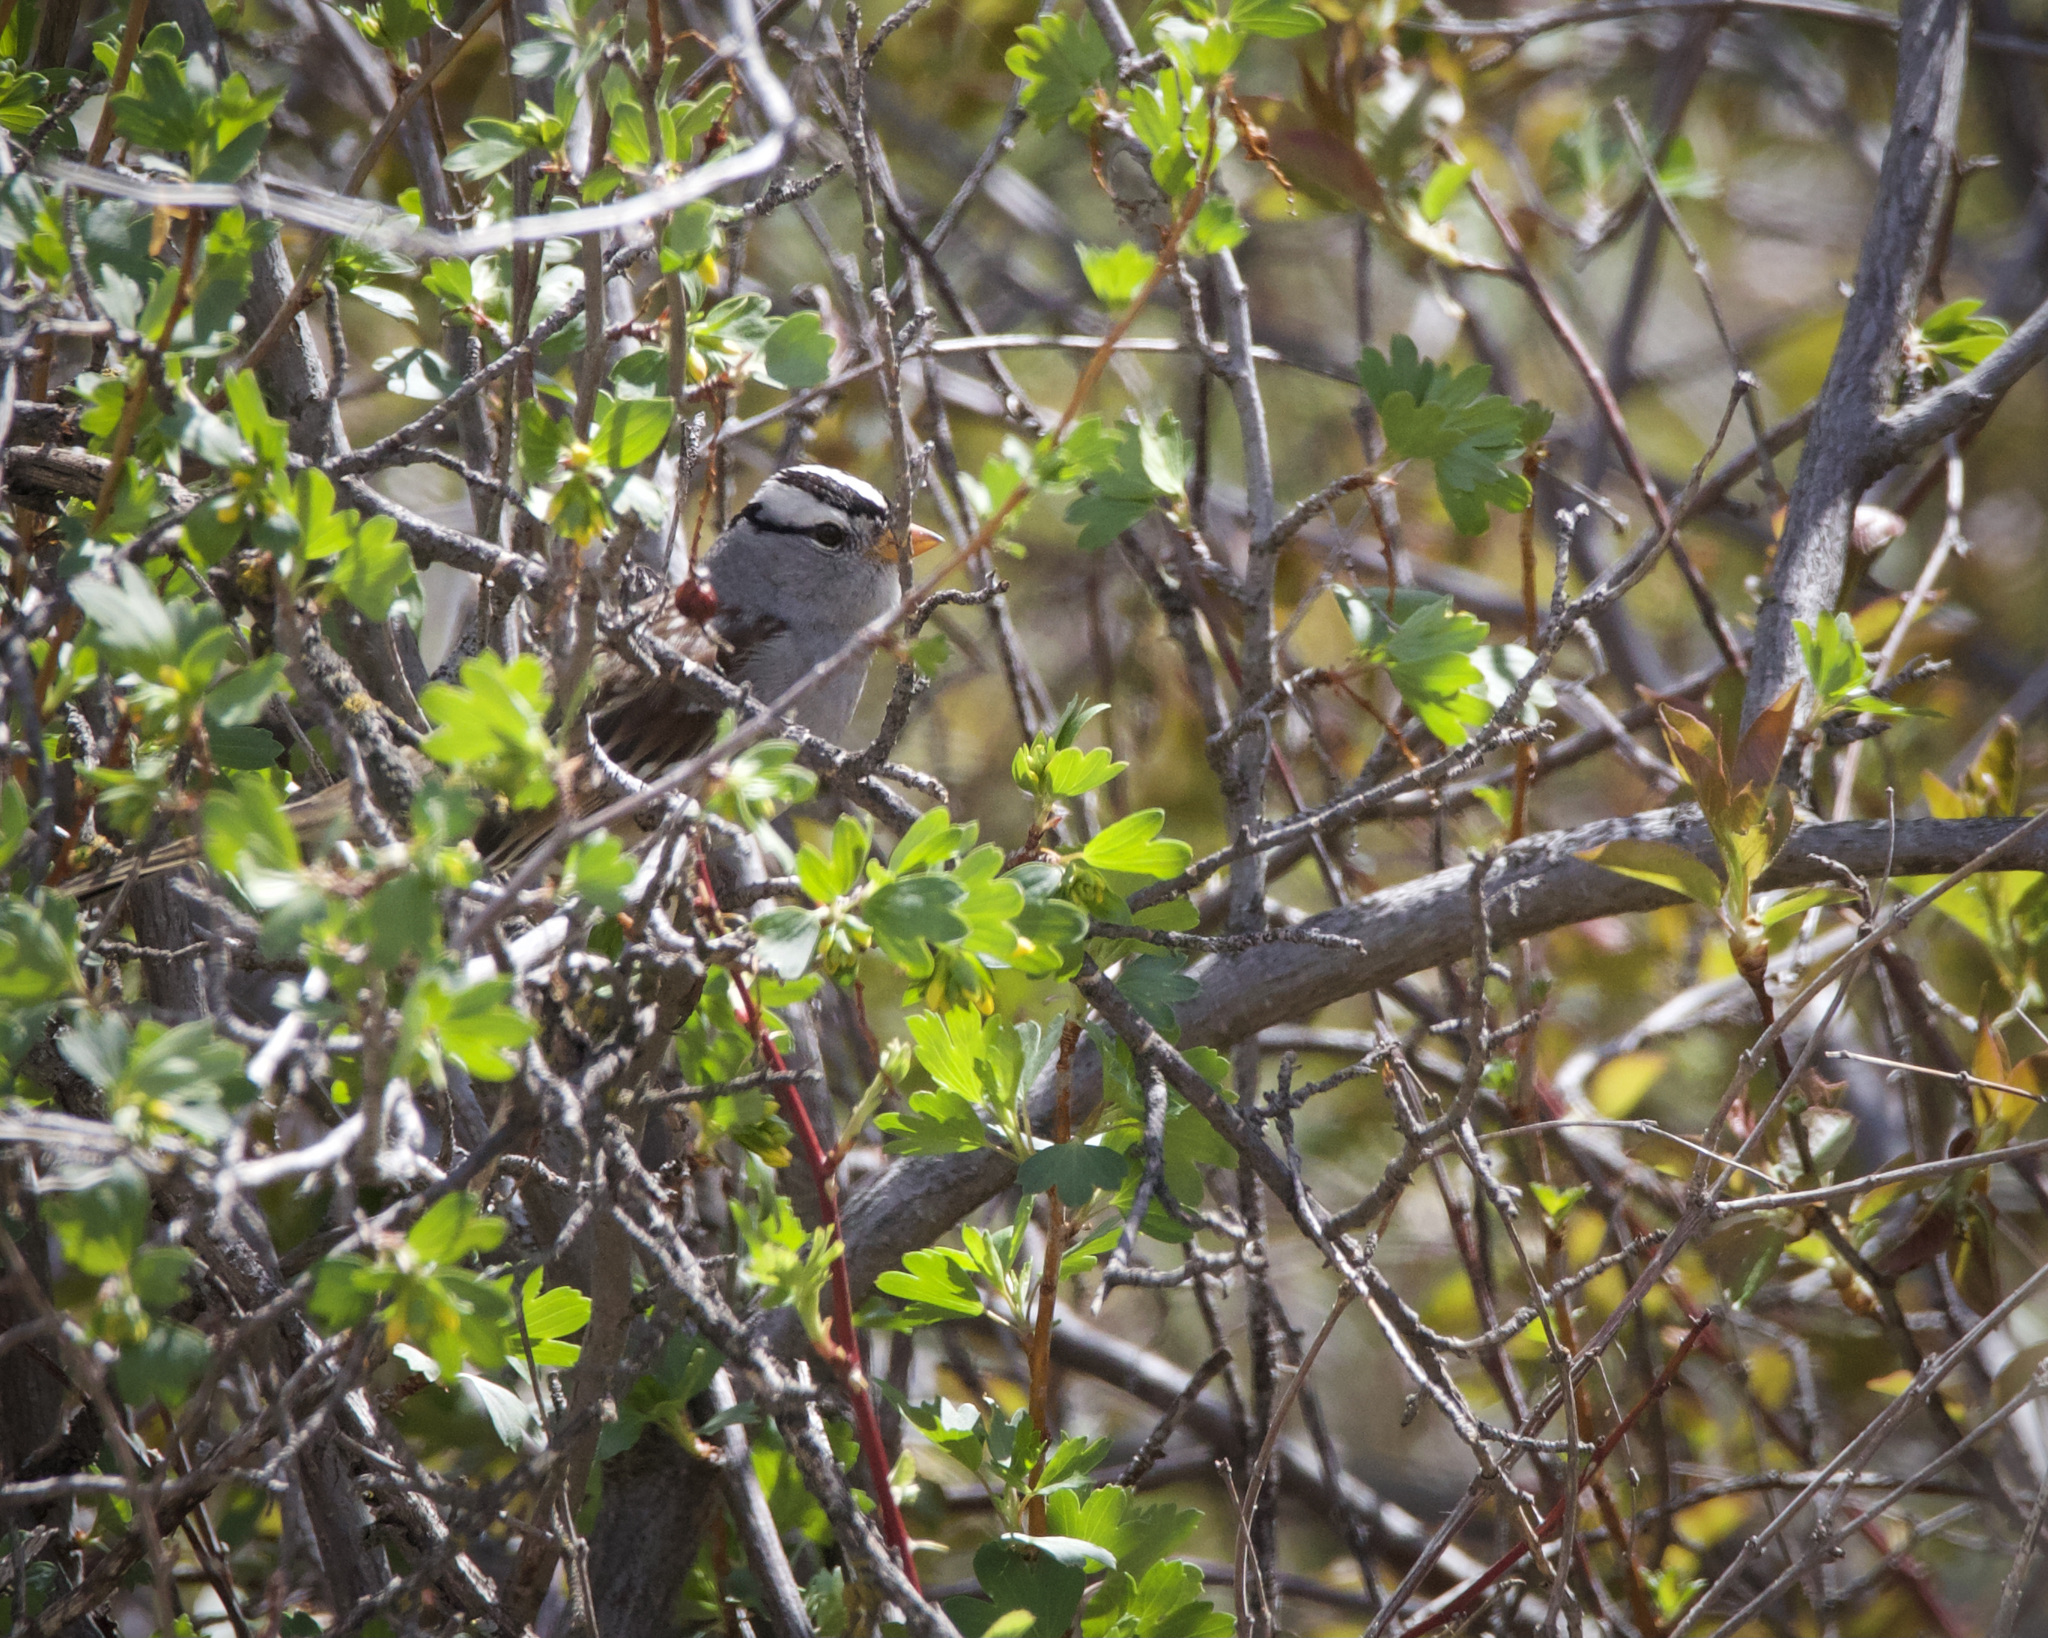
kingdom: Animalia
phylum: Chordata
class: Aves
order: Passeriformes
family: Passerellidae
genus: Zonotrichia
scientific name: Zonotrichia leucophrys
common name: White-crowned sparrow
